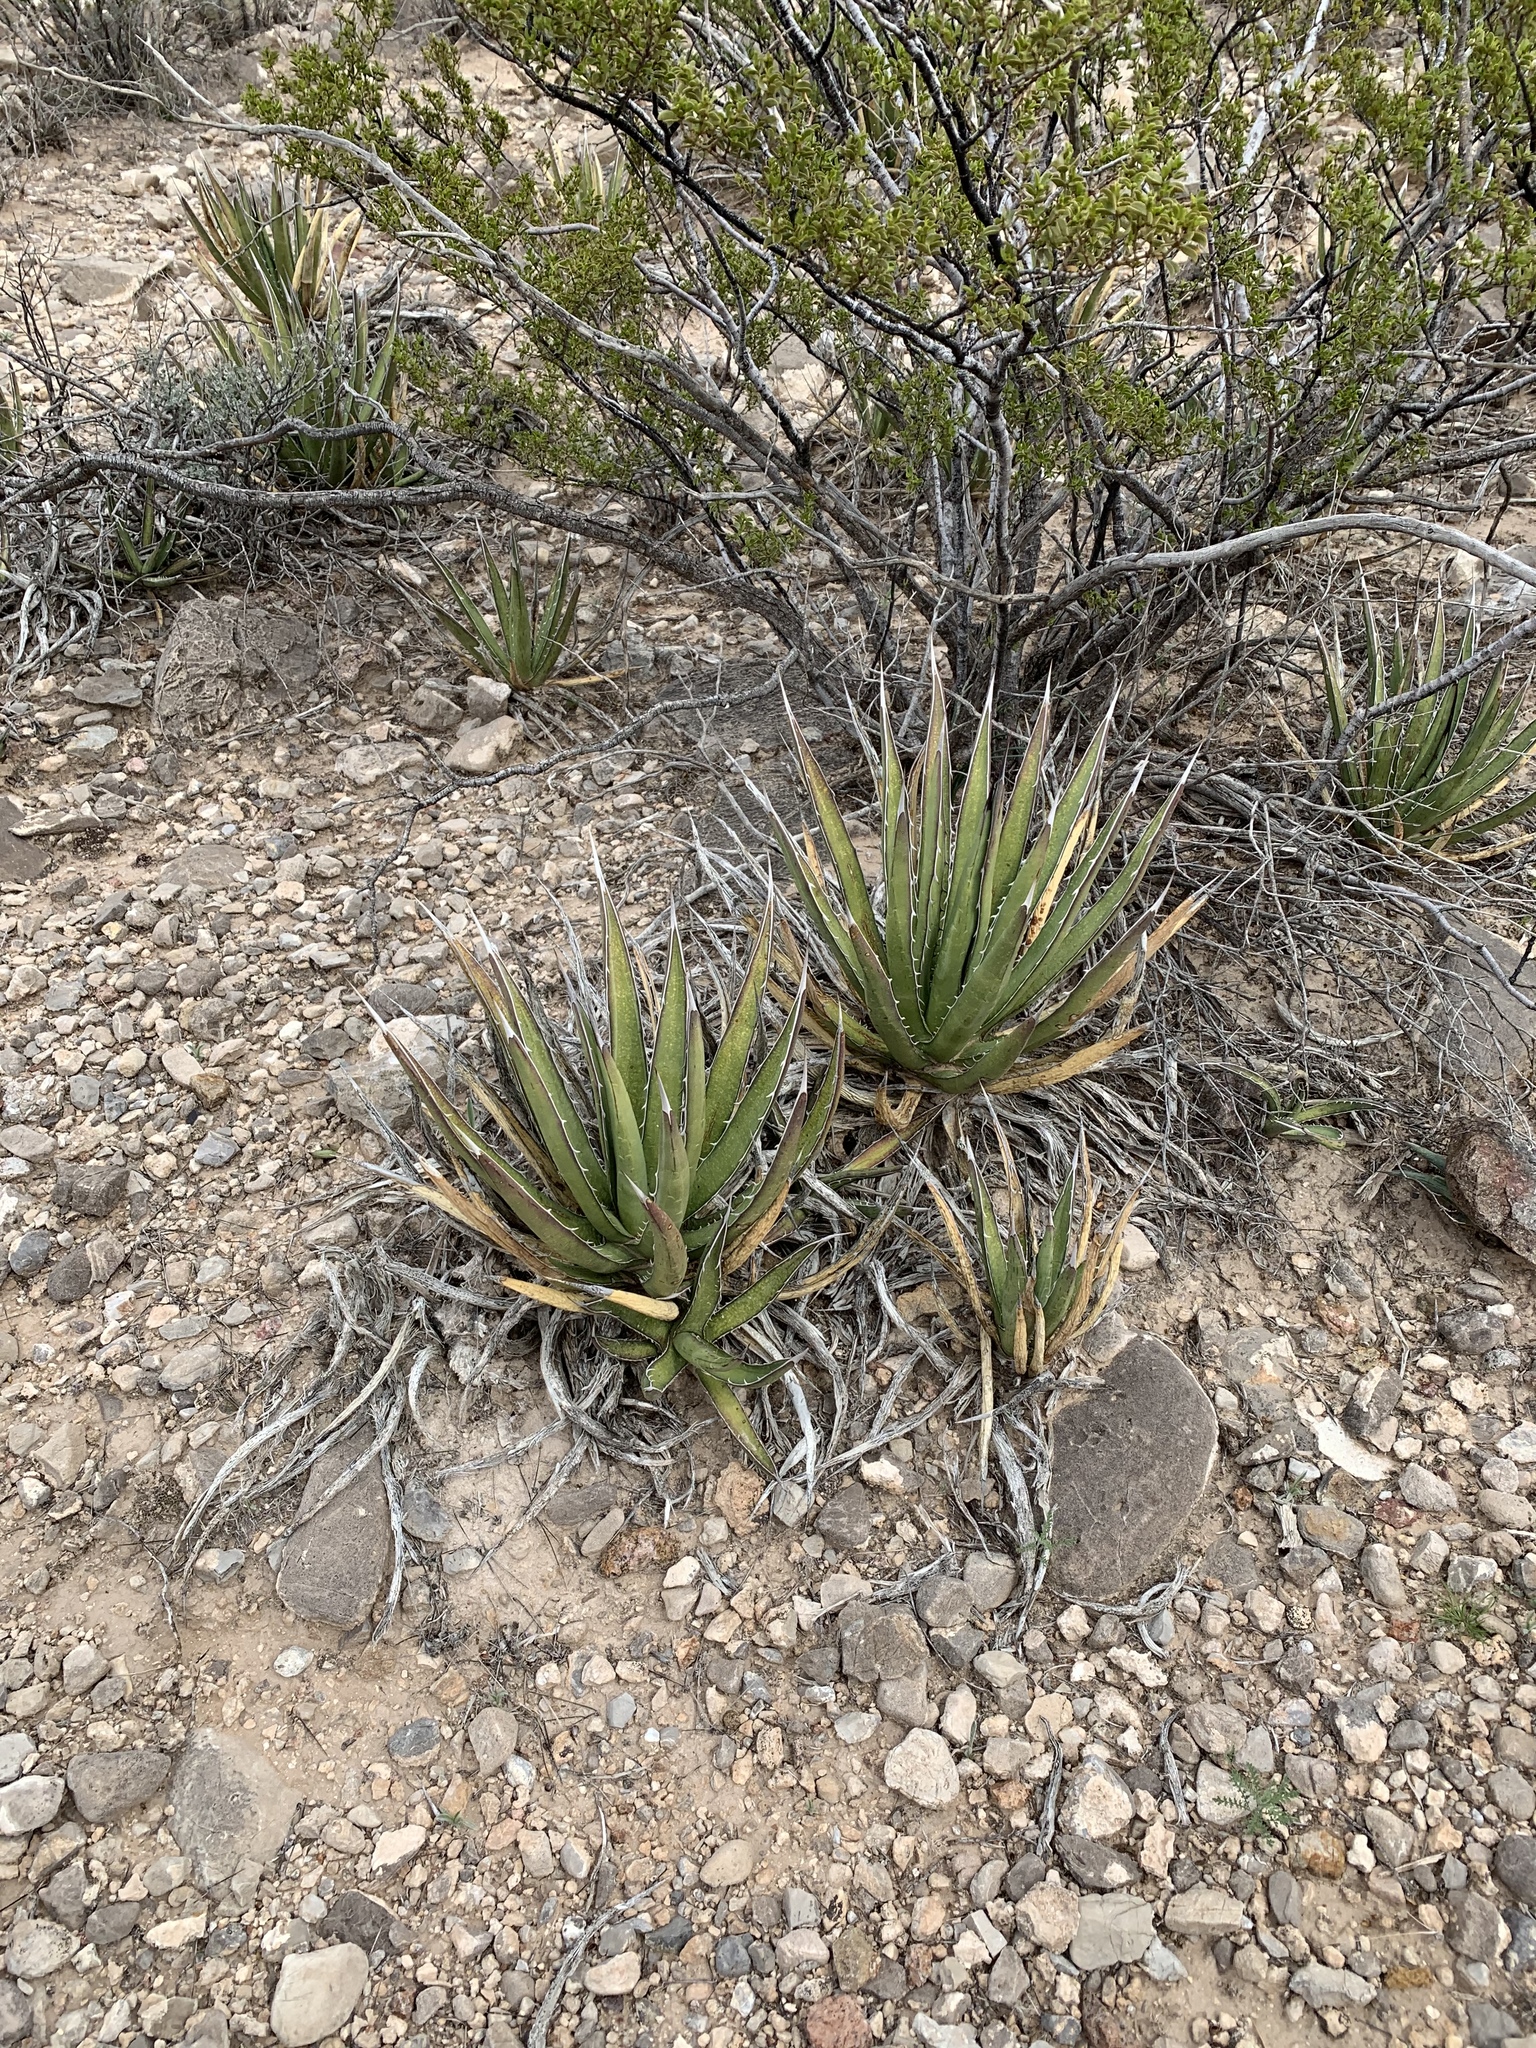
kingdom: Plantae
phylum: Tracheophyta
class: Liliopsida
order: Asparagales
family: Asparagaceae
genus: Agave
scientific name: Agave lechuguilla
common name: Lecheguilla agave
